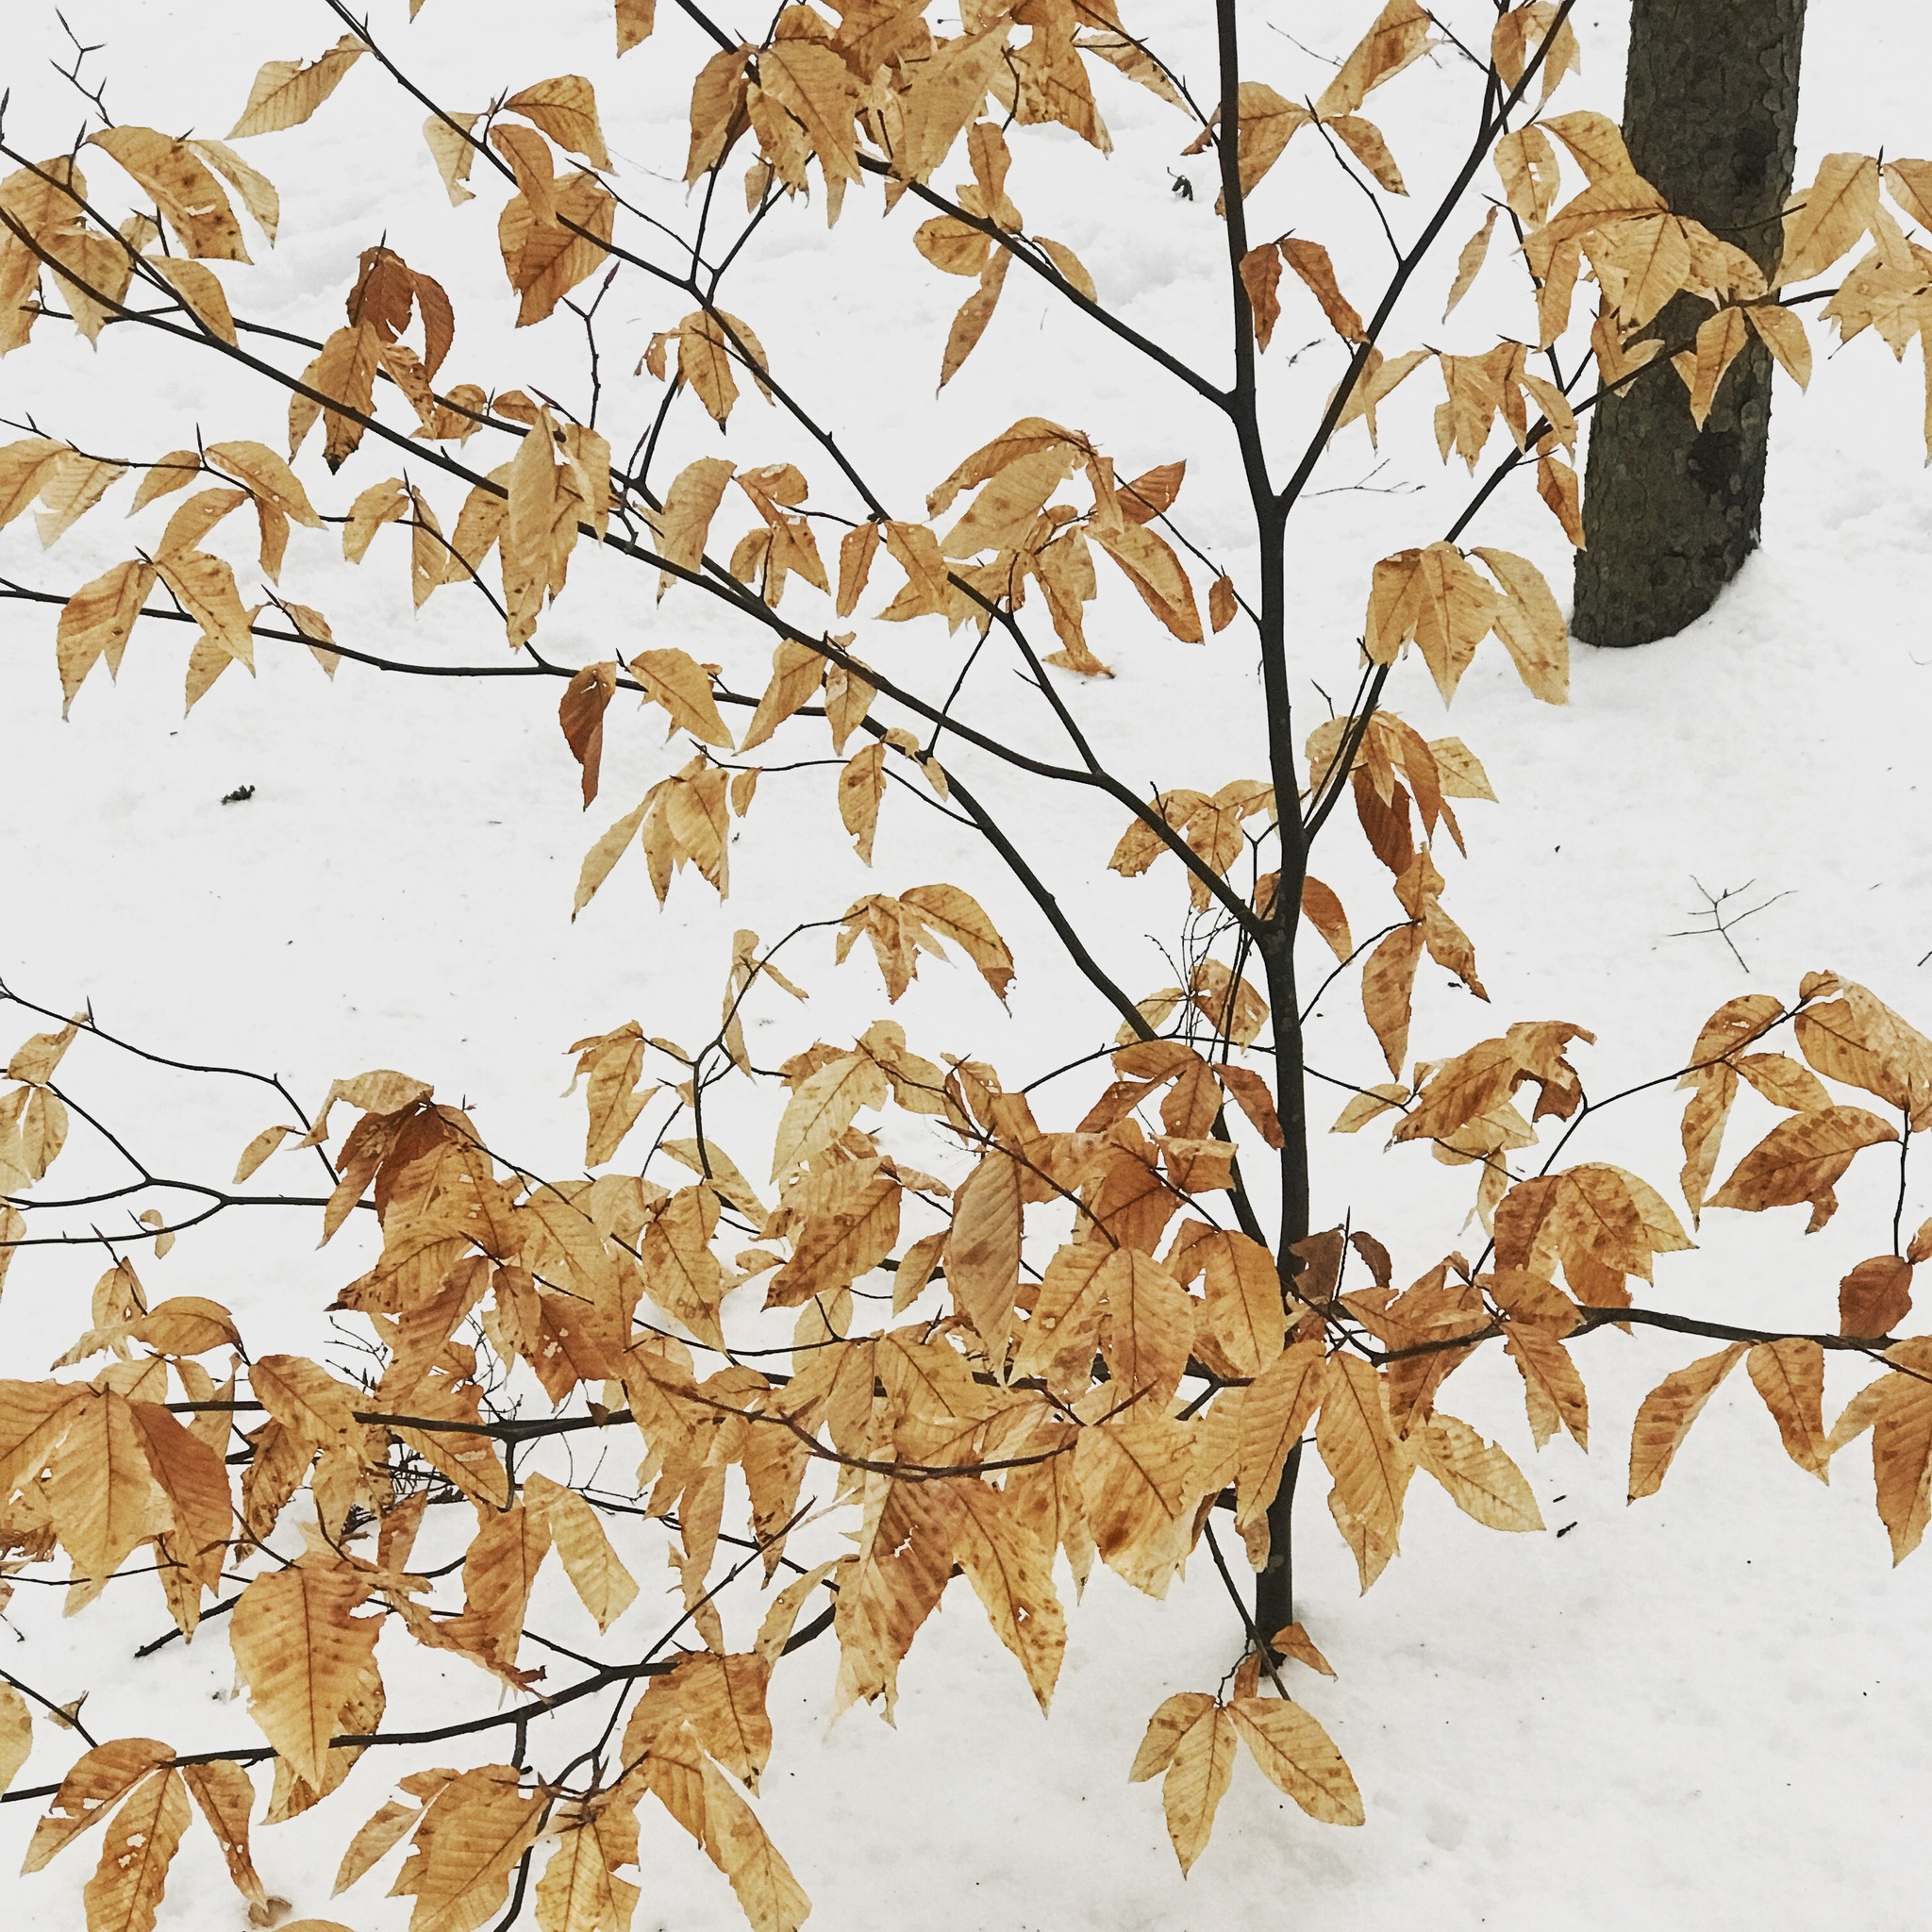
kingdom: Plantae
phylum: Tracheophyta
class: Magnoliopsida
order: Fagales
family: Fagaceae
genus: Fagus
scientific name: Fagus grandifolia
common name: American beech
